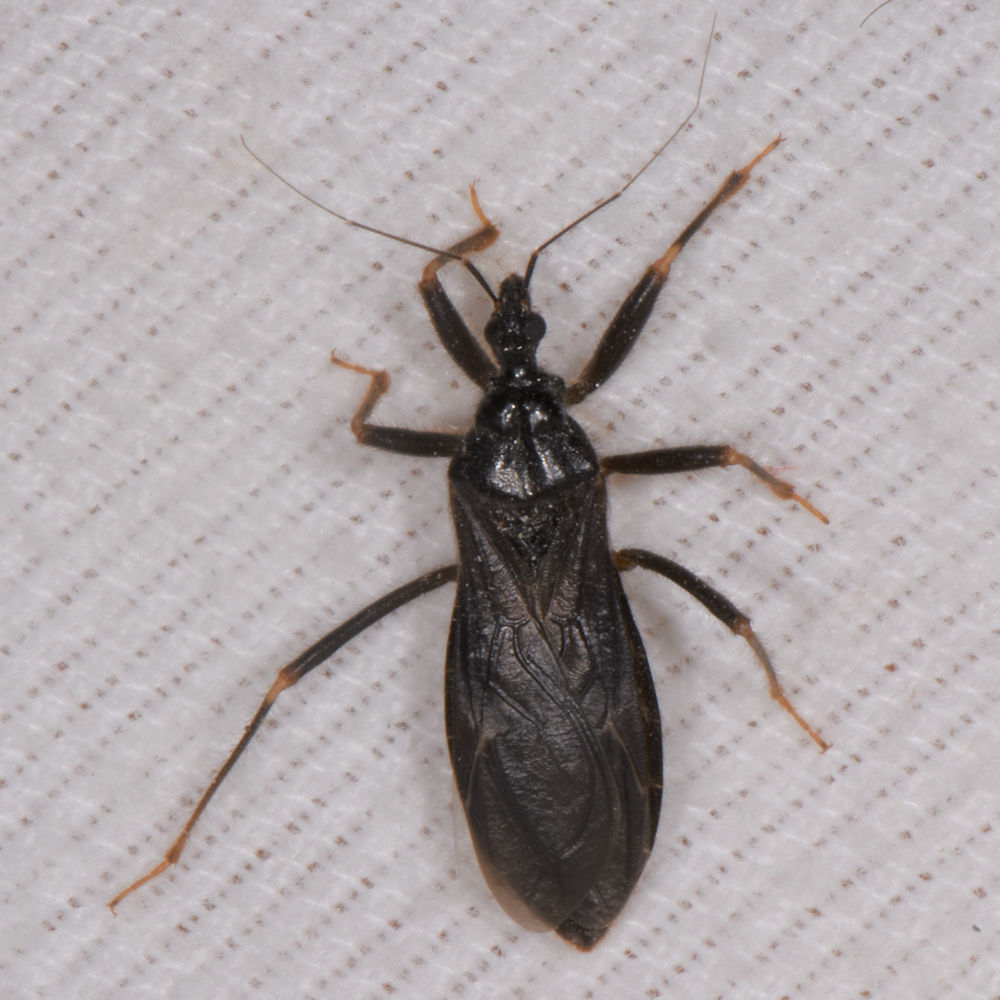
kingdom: Animalia
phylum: Arthropoda
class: Insecta
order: Hemiptera
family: Reduviidae
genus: Reduvius
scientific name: Reduvius personatus
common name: Masked hunter
